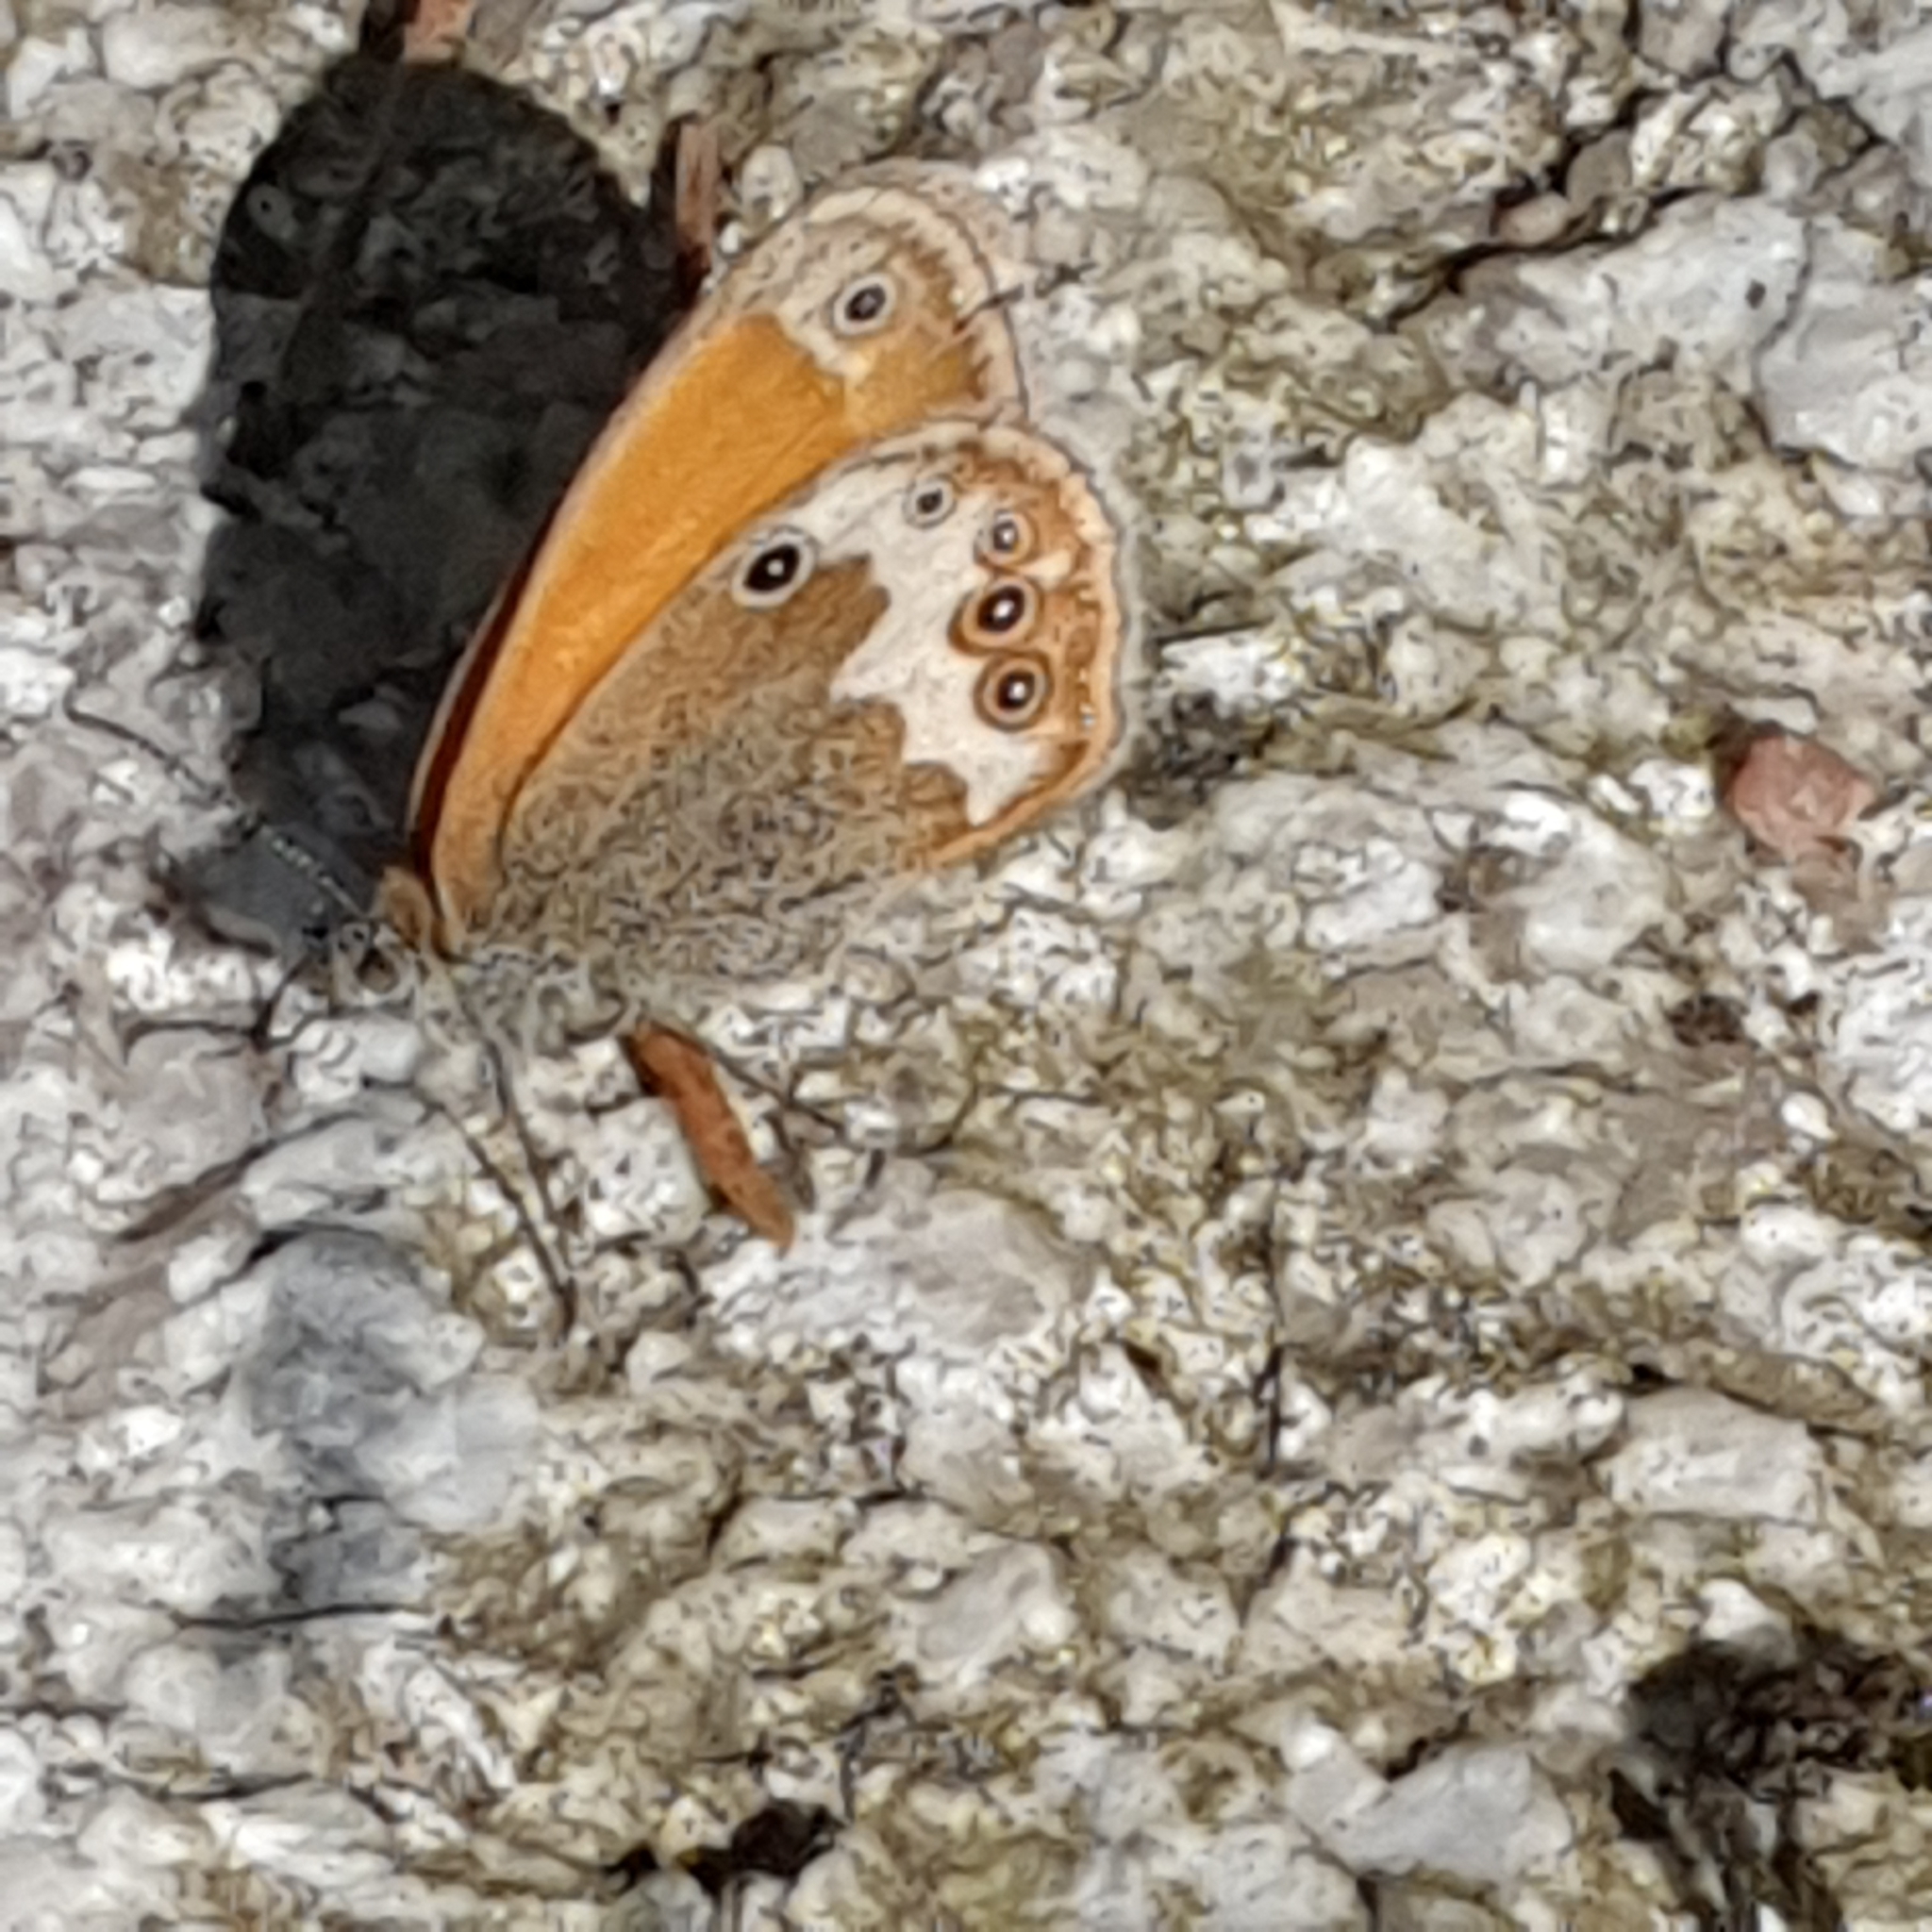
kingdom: Animalia
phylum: Arthropoda
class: Insecta
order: Lepidoptera
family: Nymphalidae
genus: Coenonympha
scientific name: Coenonympha arcania
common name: Pearly heath
